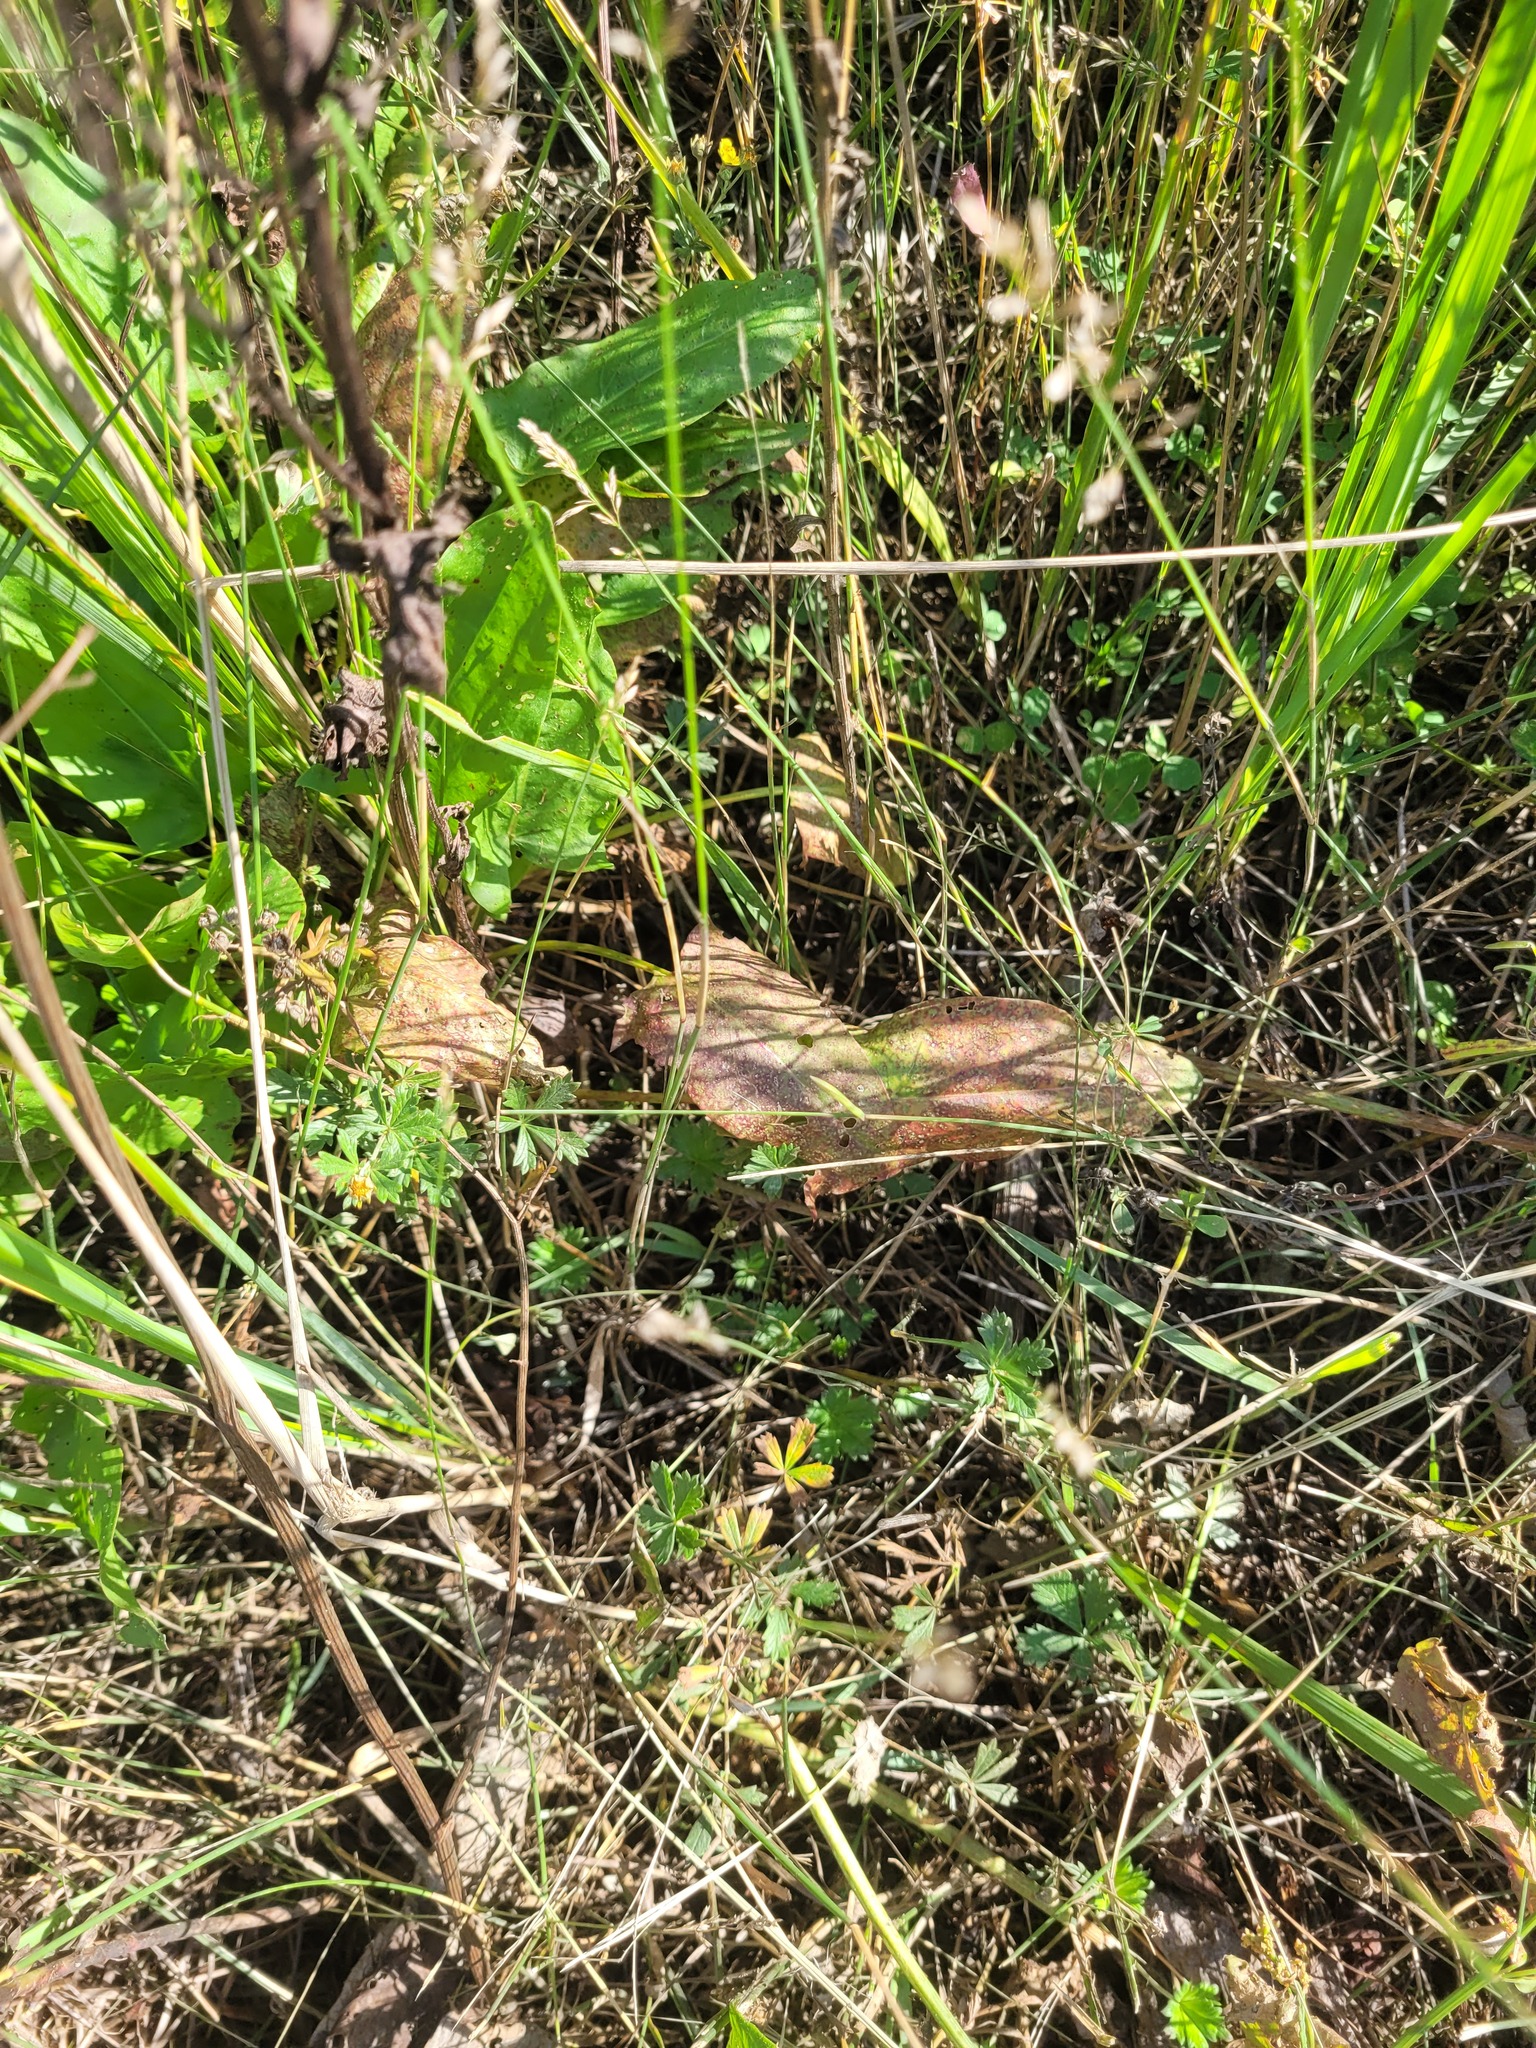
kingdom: Plantae
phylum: Tracheophyta
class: Magnoliopsida
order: Rosales
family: Rosaceae
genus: Potentilla
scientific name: Potentilla argentea
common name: Hoary cinquefoil
